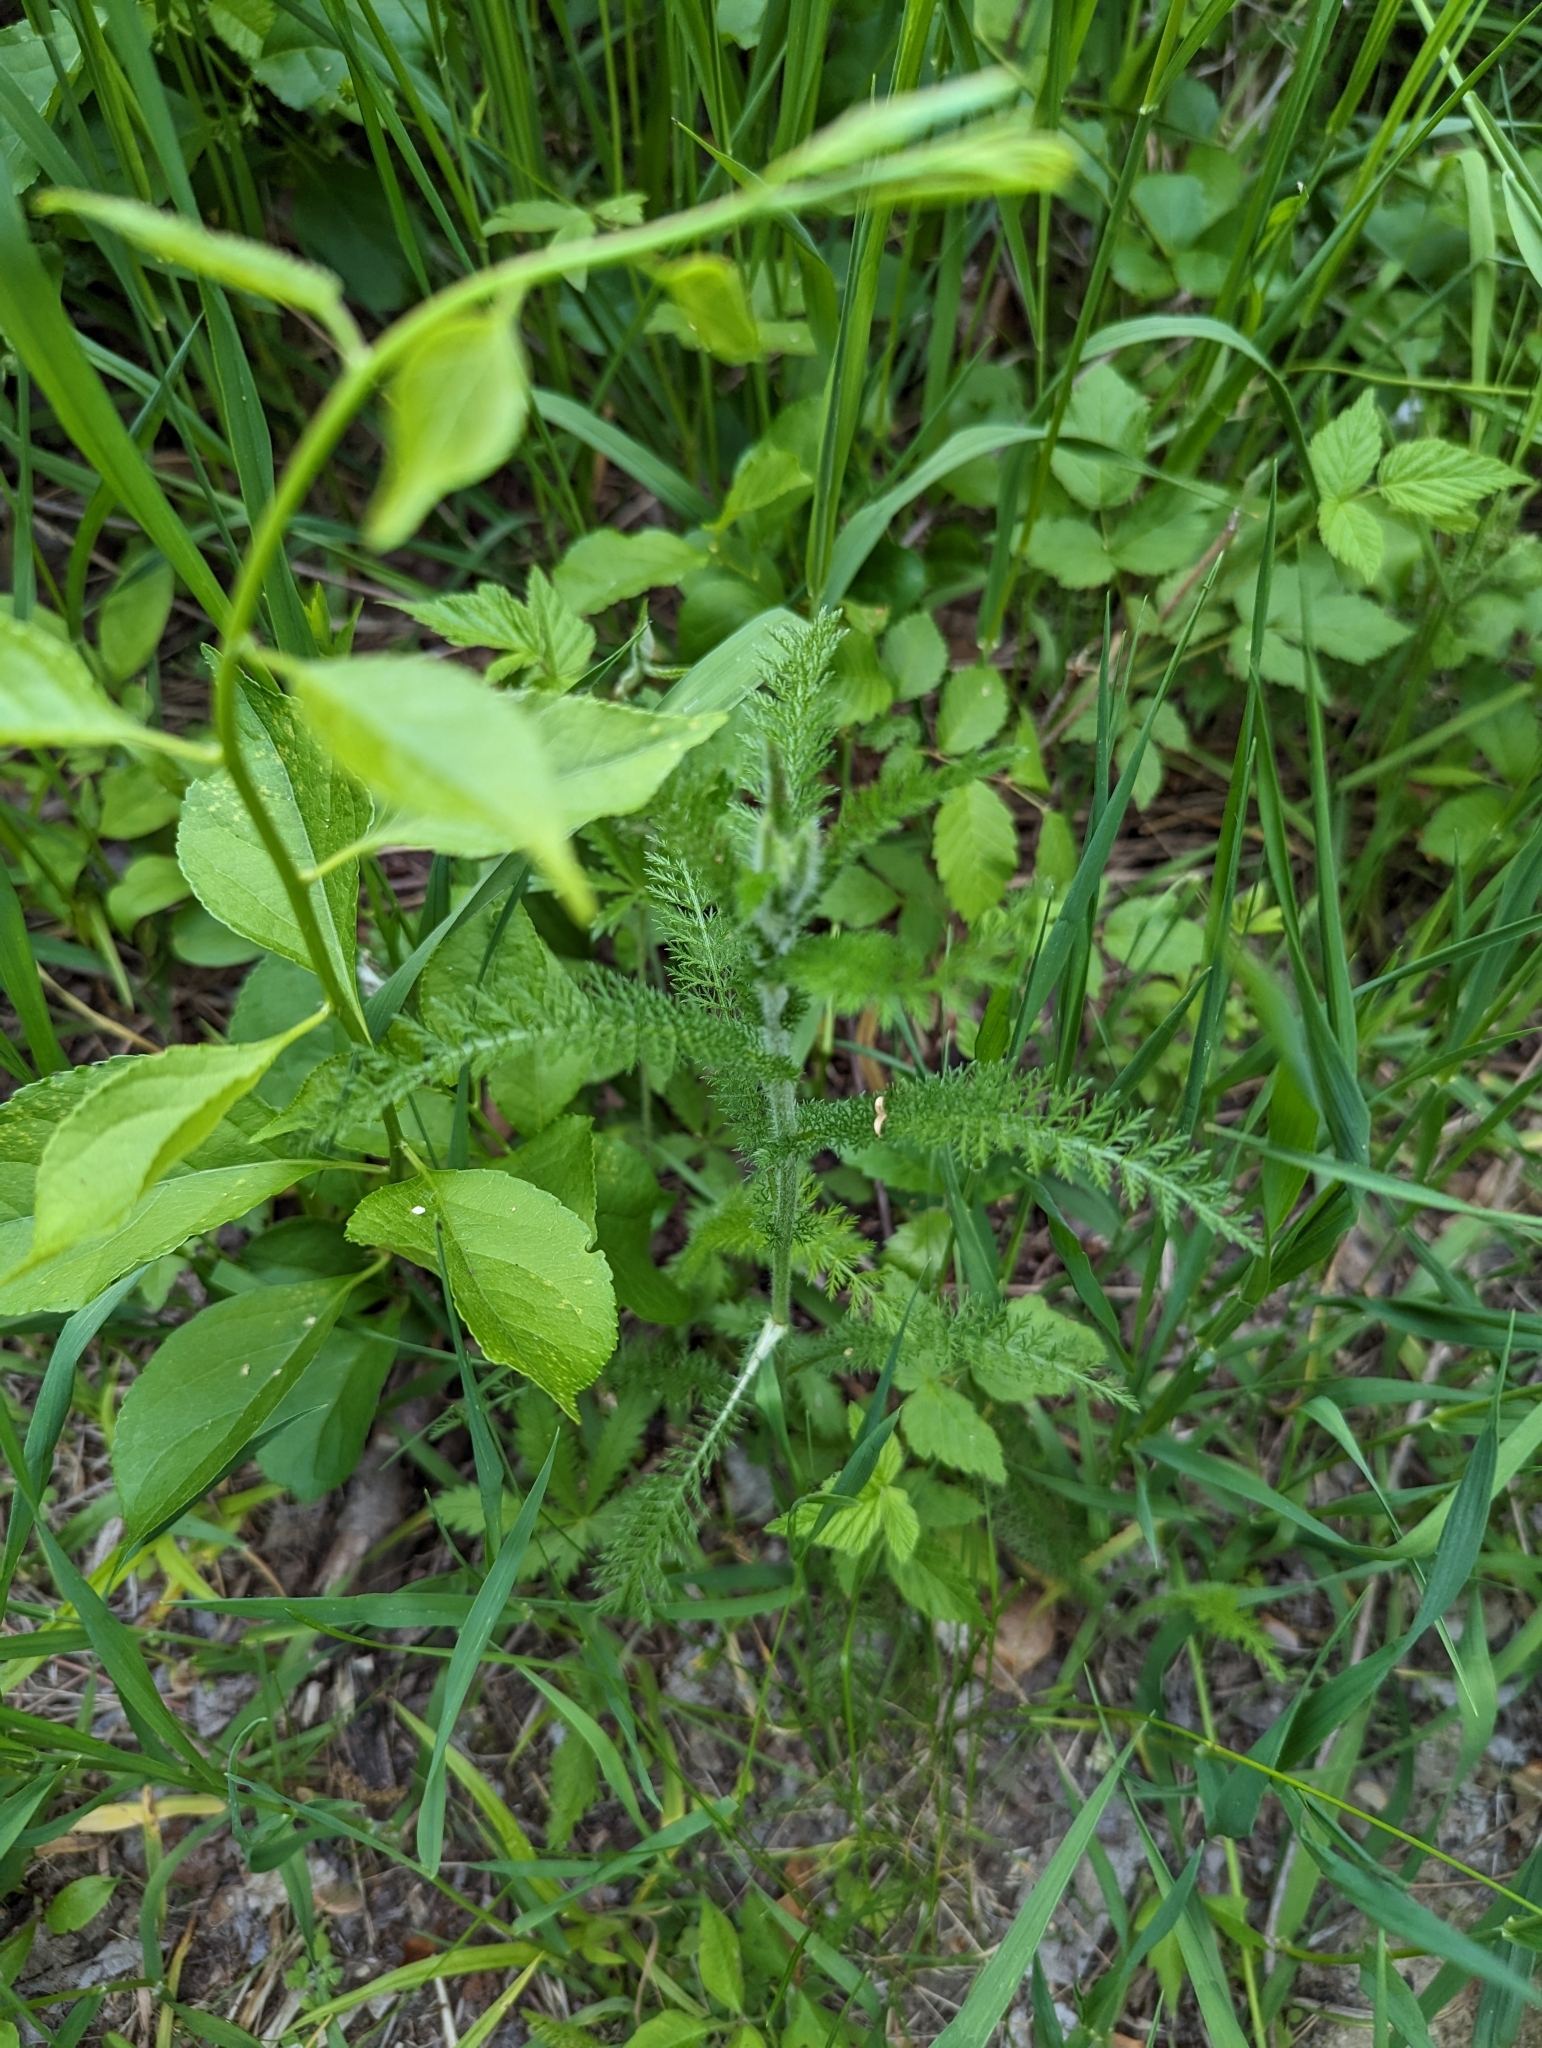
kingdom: Plantae
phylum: Tracheophyta
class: Magnoliopsida
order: Asterales
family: Asteraceae
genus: Achillea
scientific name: Achillea millefolium
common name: Yarrow
